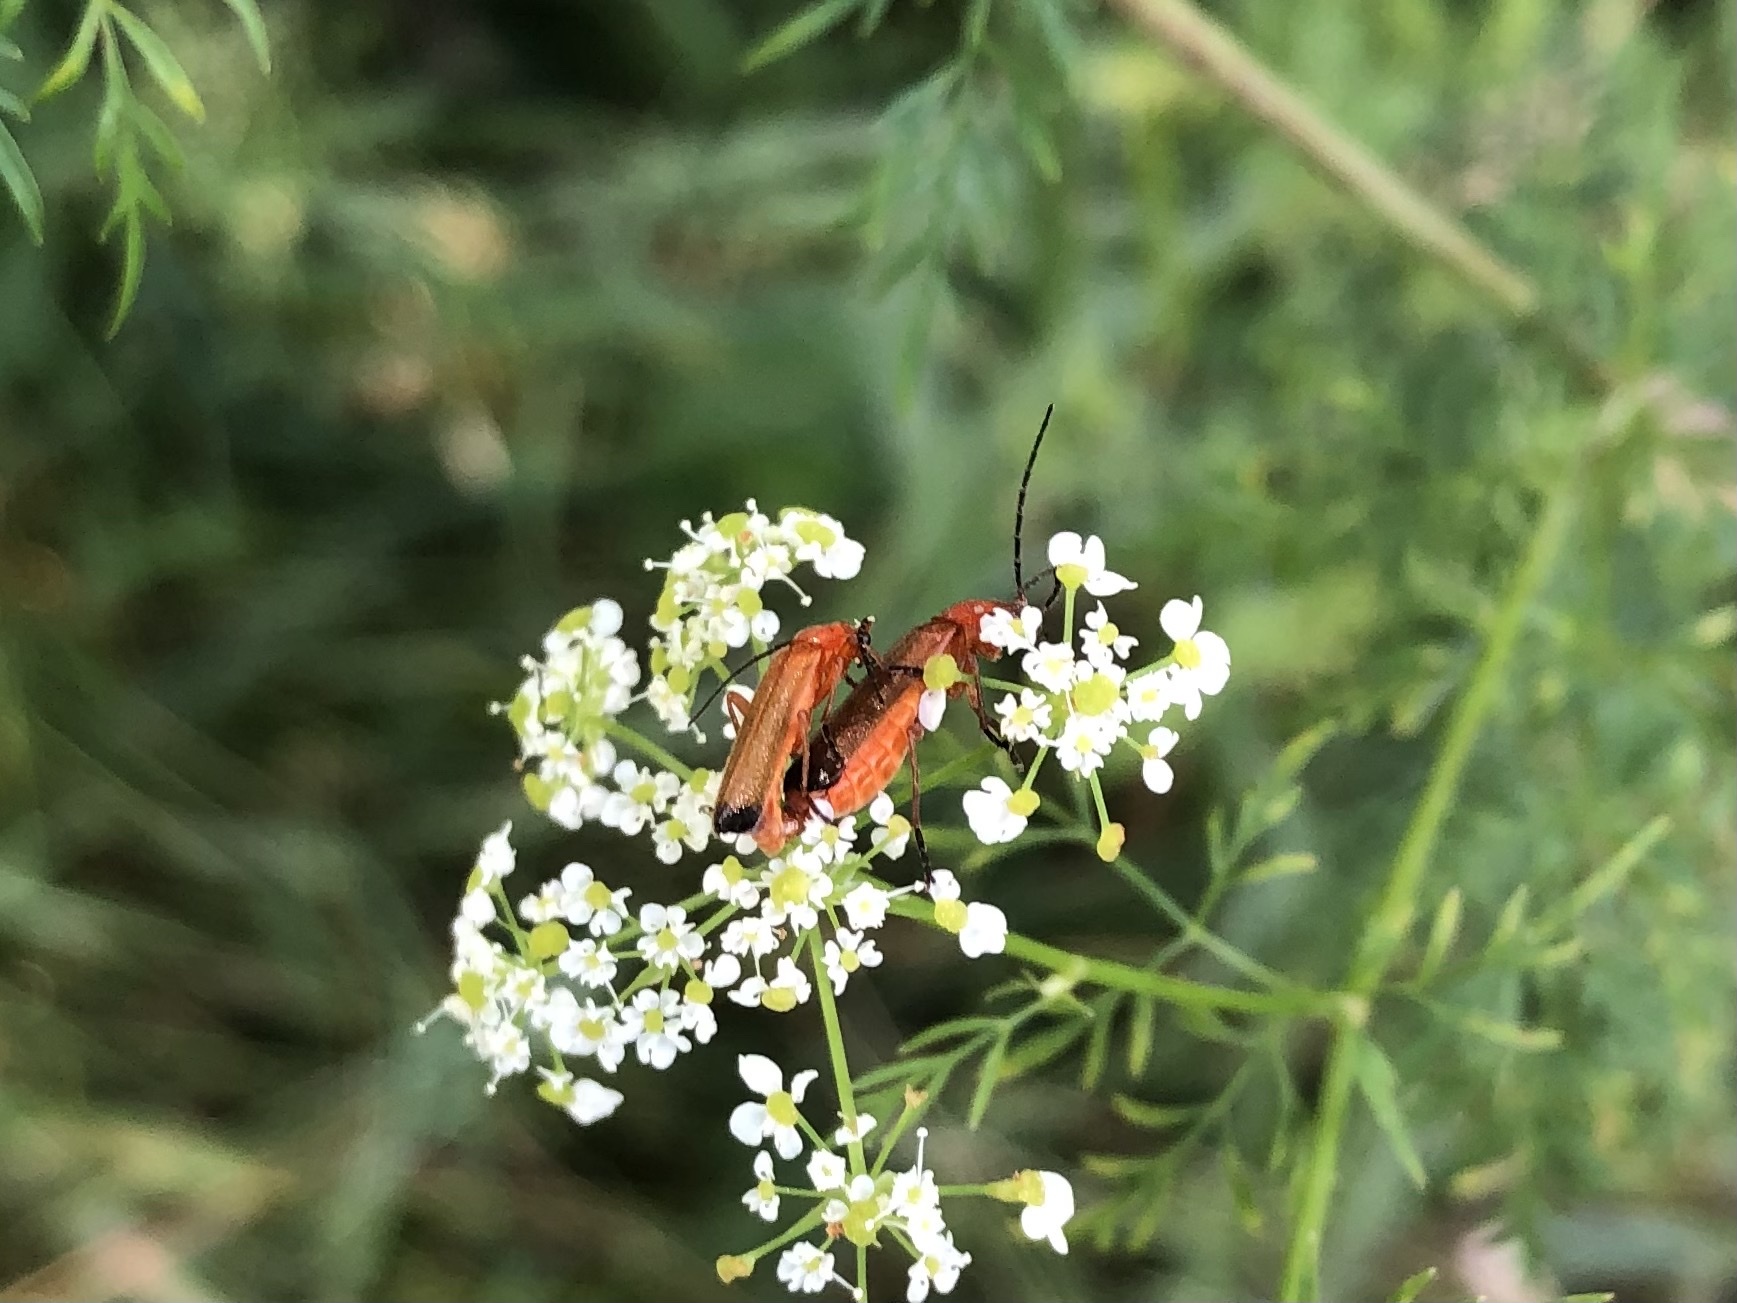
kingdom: Animalia
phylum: Arthropoda
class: Insecta
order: Coleoptera
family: Cantharidae
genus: Rhagonycha
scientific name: Rhagonycha fulva
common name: Common red soldier beetle
